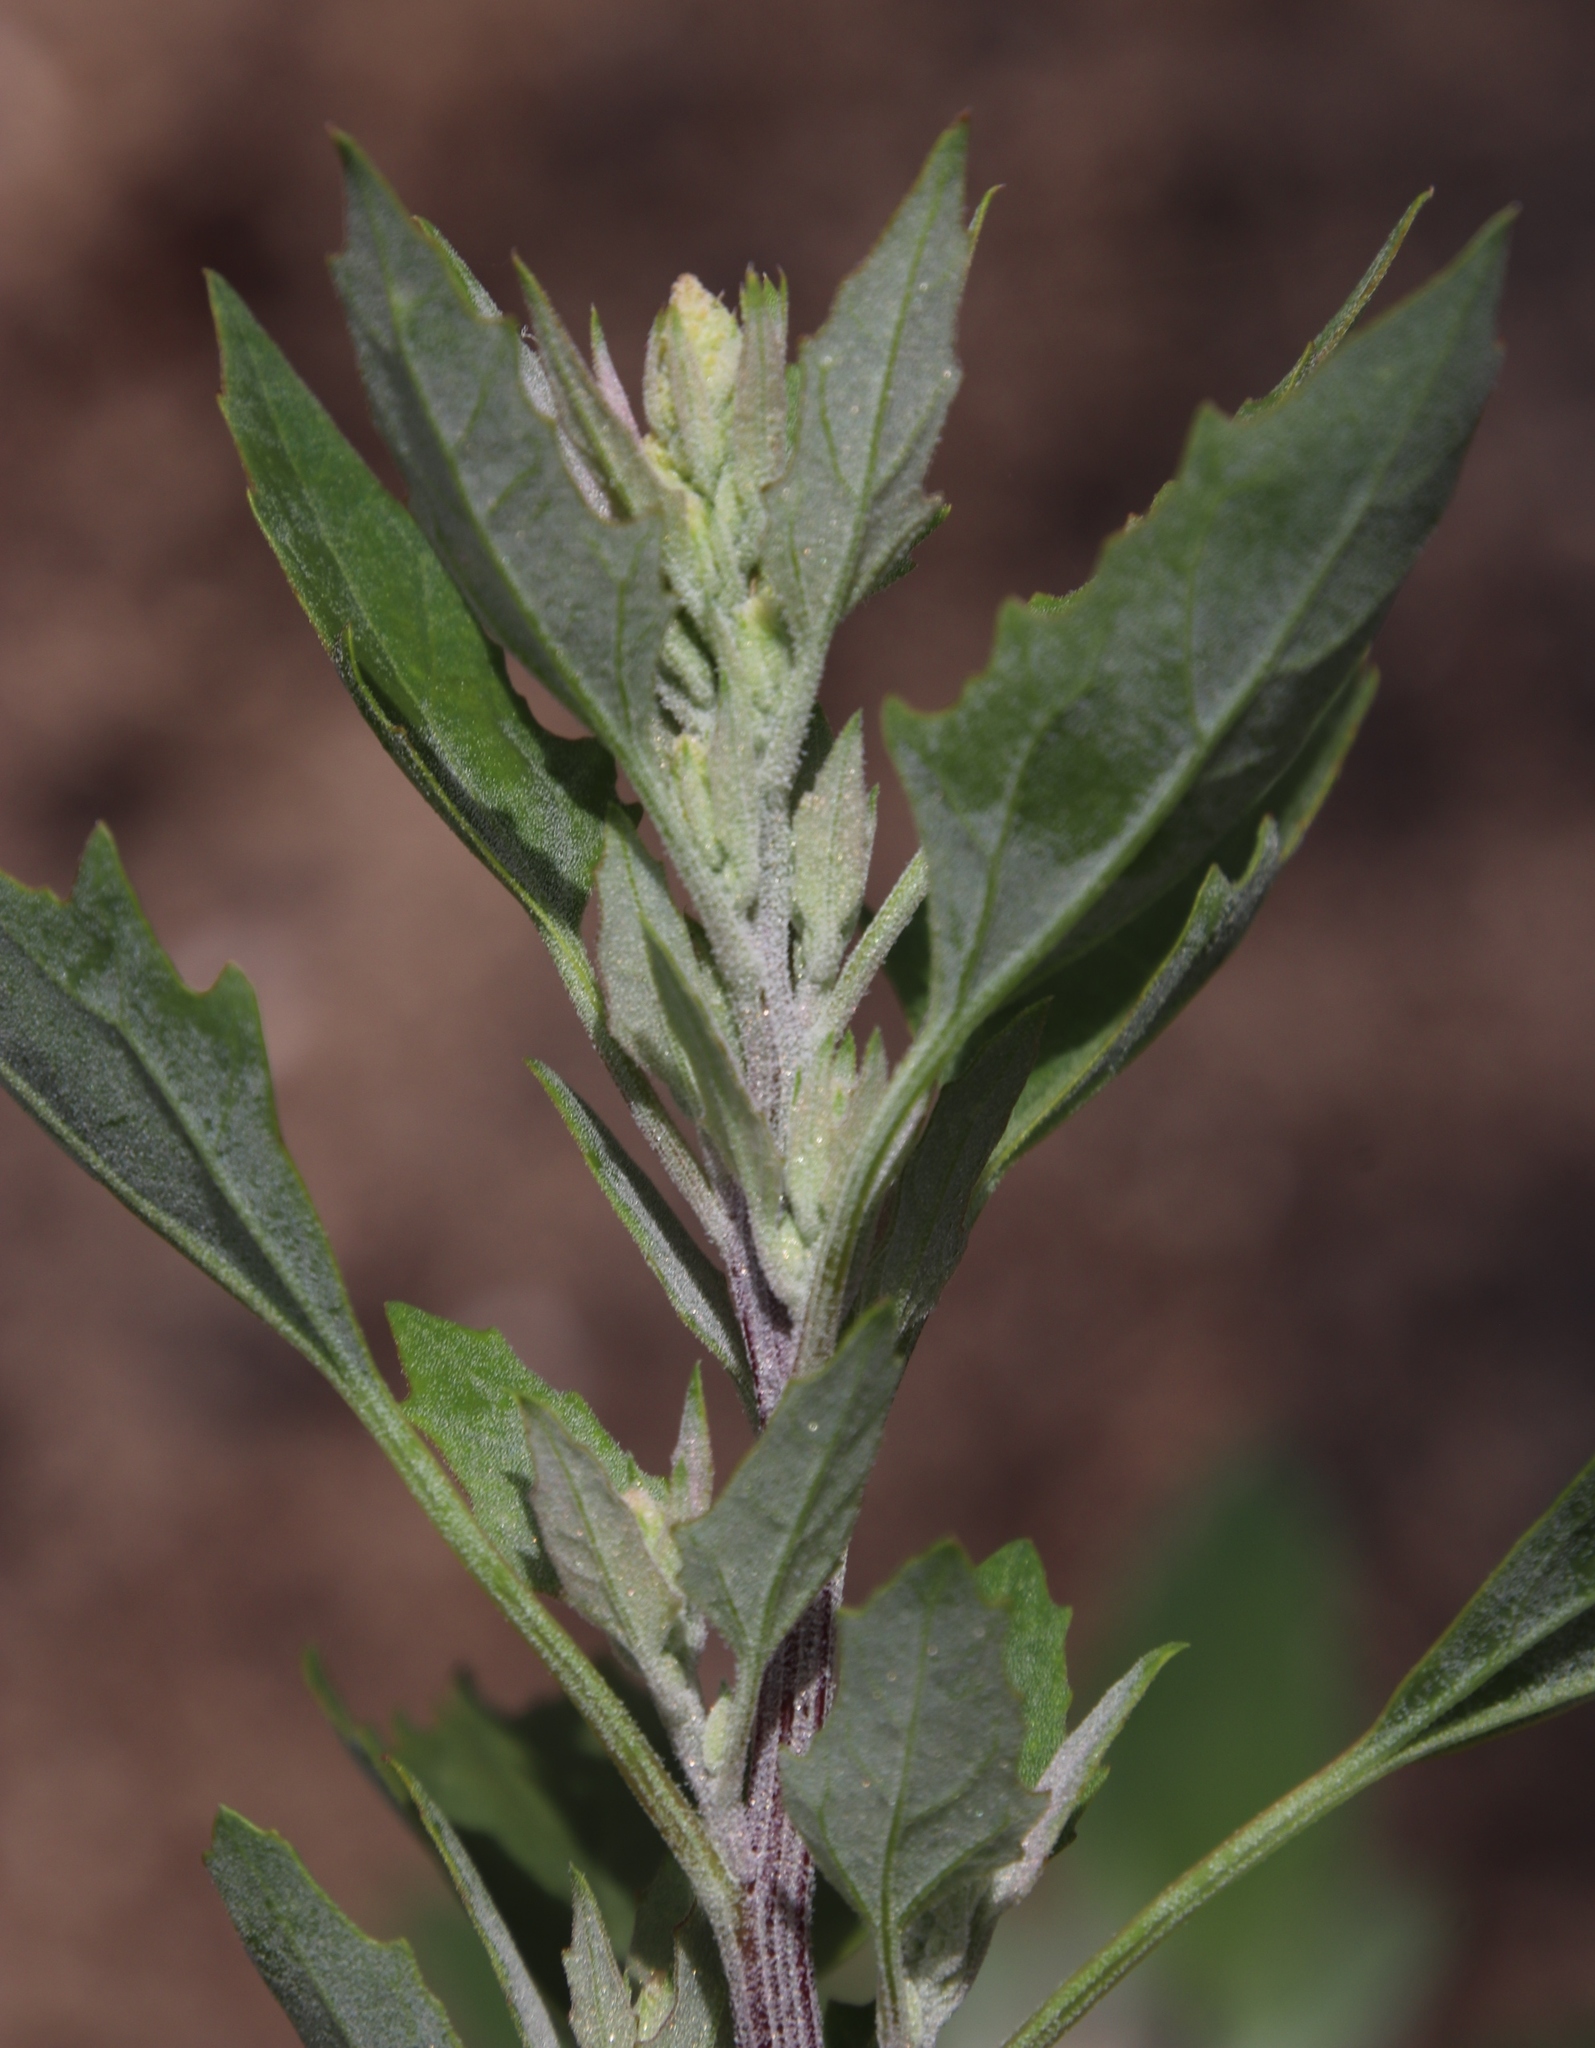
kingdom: Plantae
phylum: Tracheophyta
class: Magnoliopsida
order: Caryophyllales
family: Amaranthaceae
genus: Chenopodium
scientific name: Chenopodium album
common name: Fat-hen
